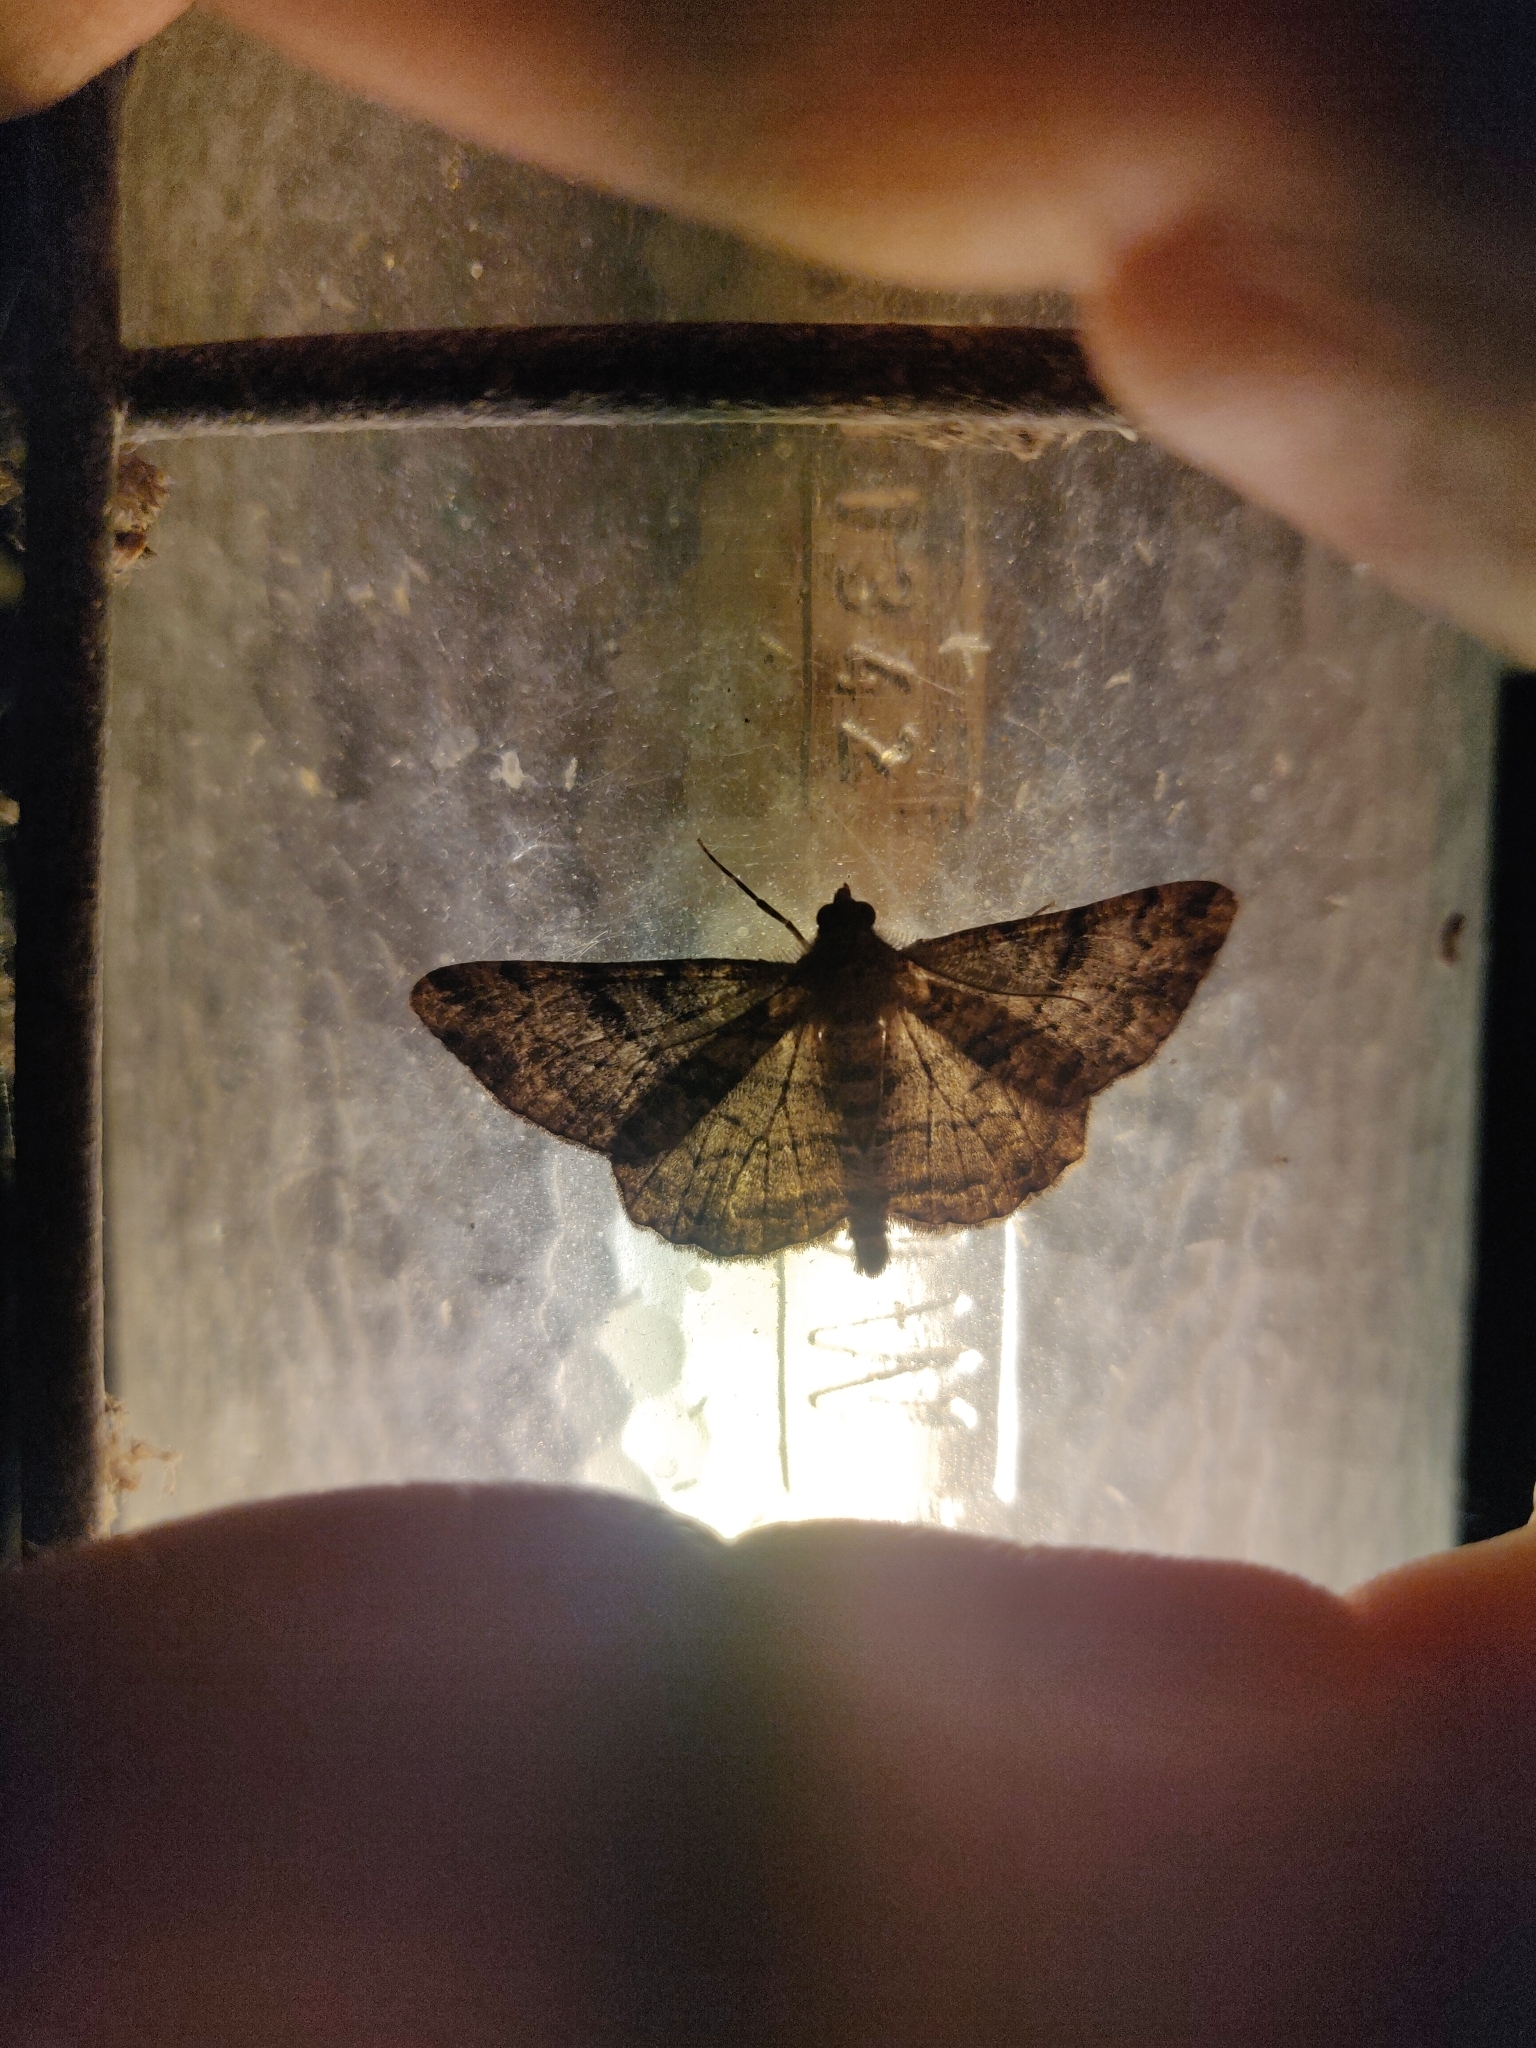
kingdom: Animalia
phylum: Arthropoda
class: Insecta
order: Lepidoptera
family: Geometridae
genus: Peribatodes
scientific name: Peribatodes rhomboidaria
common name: Willow beauty
